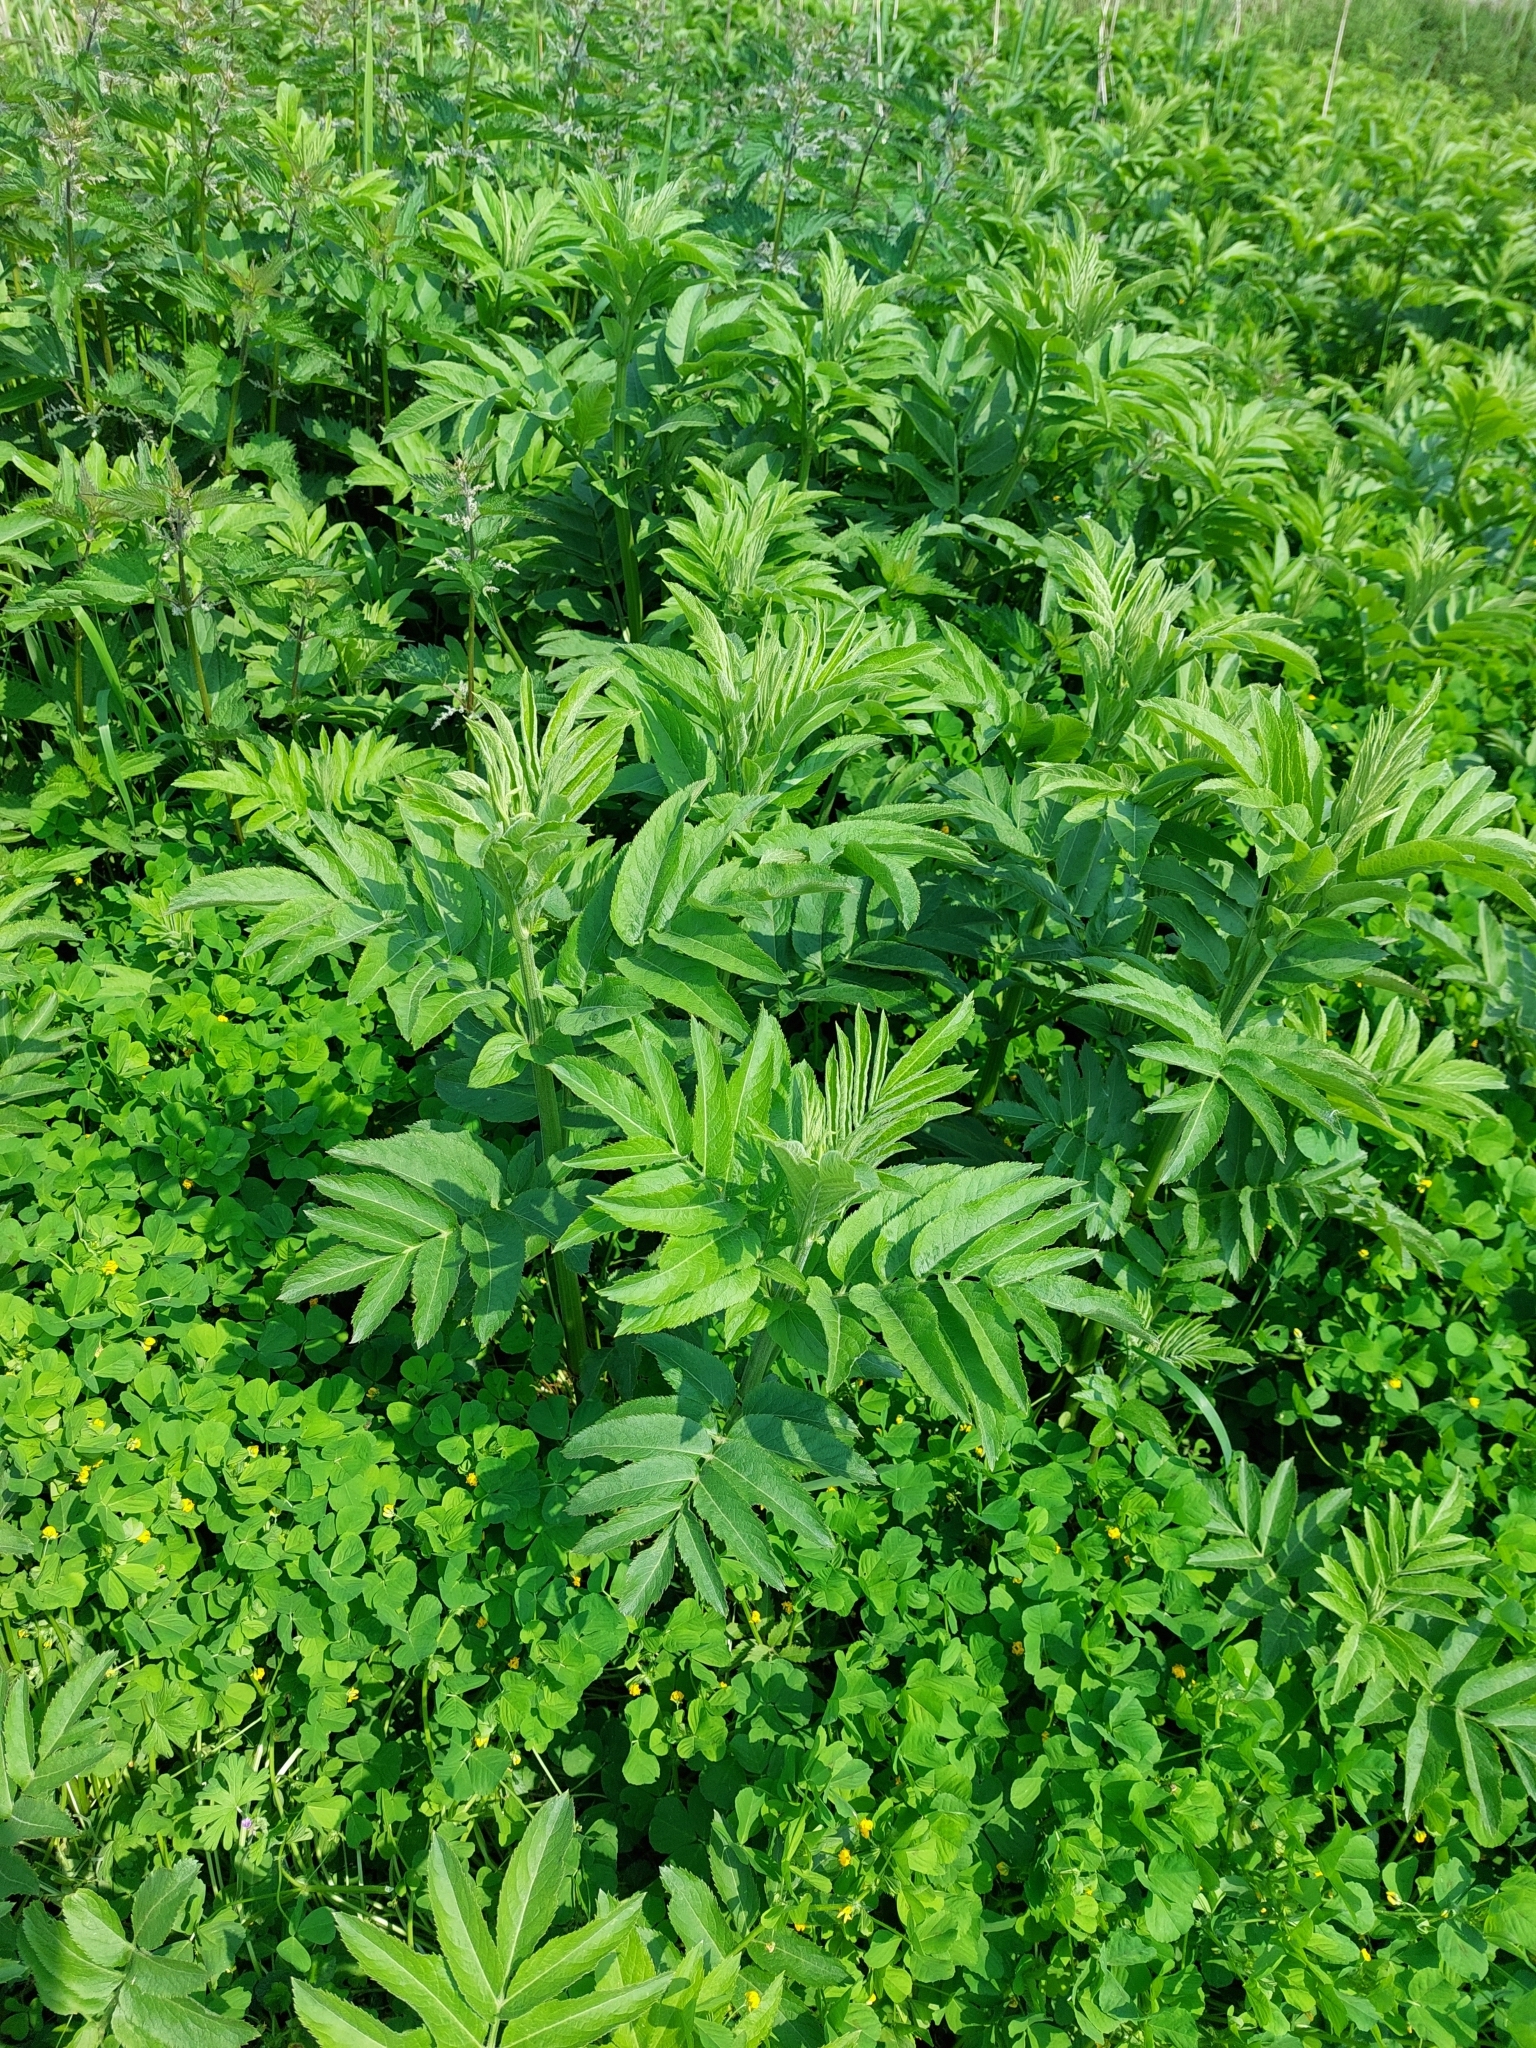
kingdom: Plantae
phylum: Tracheophyta
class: Magnoliopsida
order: Dipsacales
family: Viburnaceae
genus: Sambucus
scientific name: Sambucus ebulus
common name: Dwarf elder
